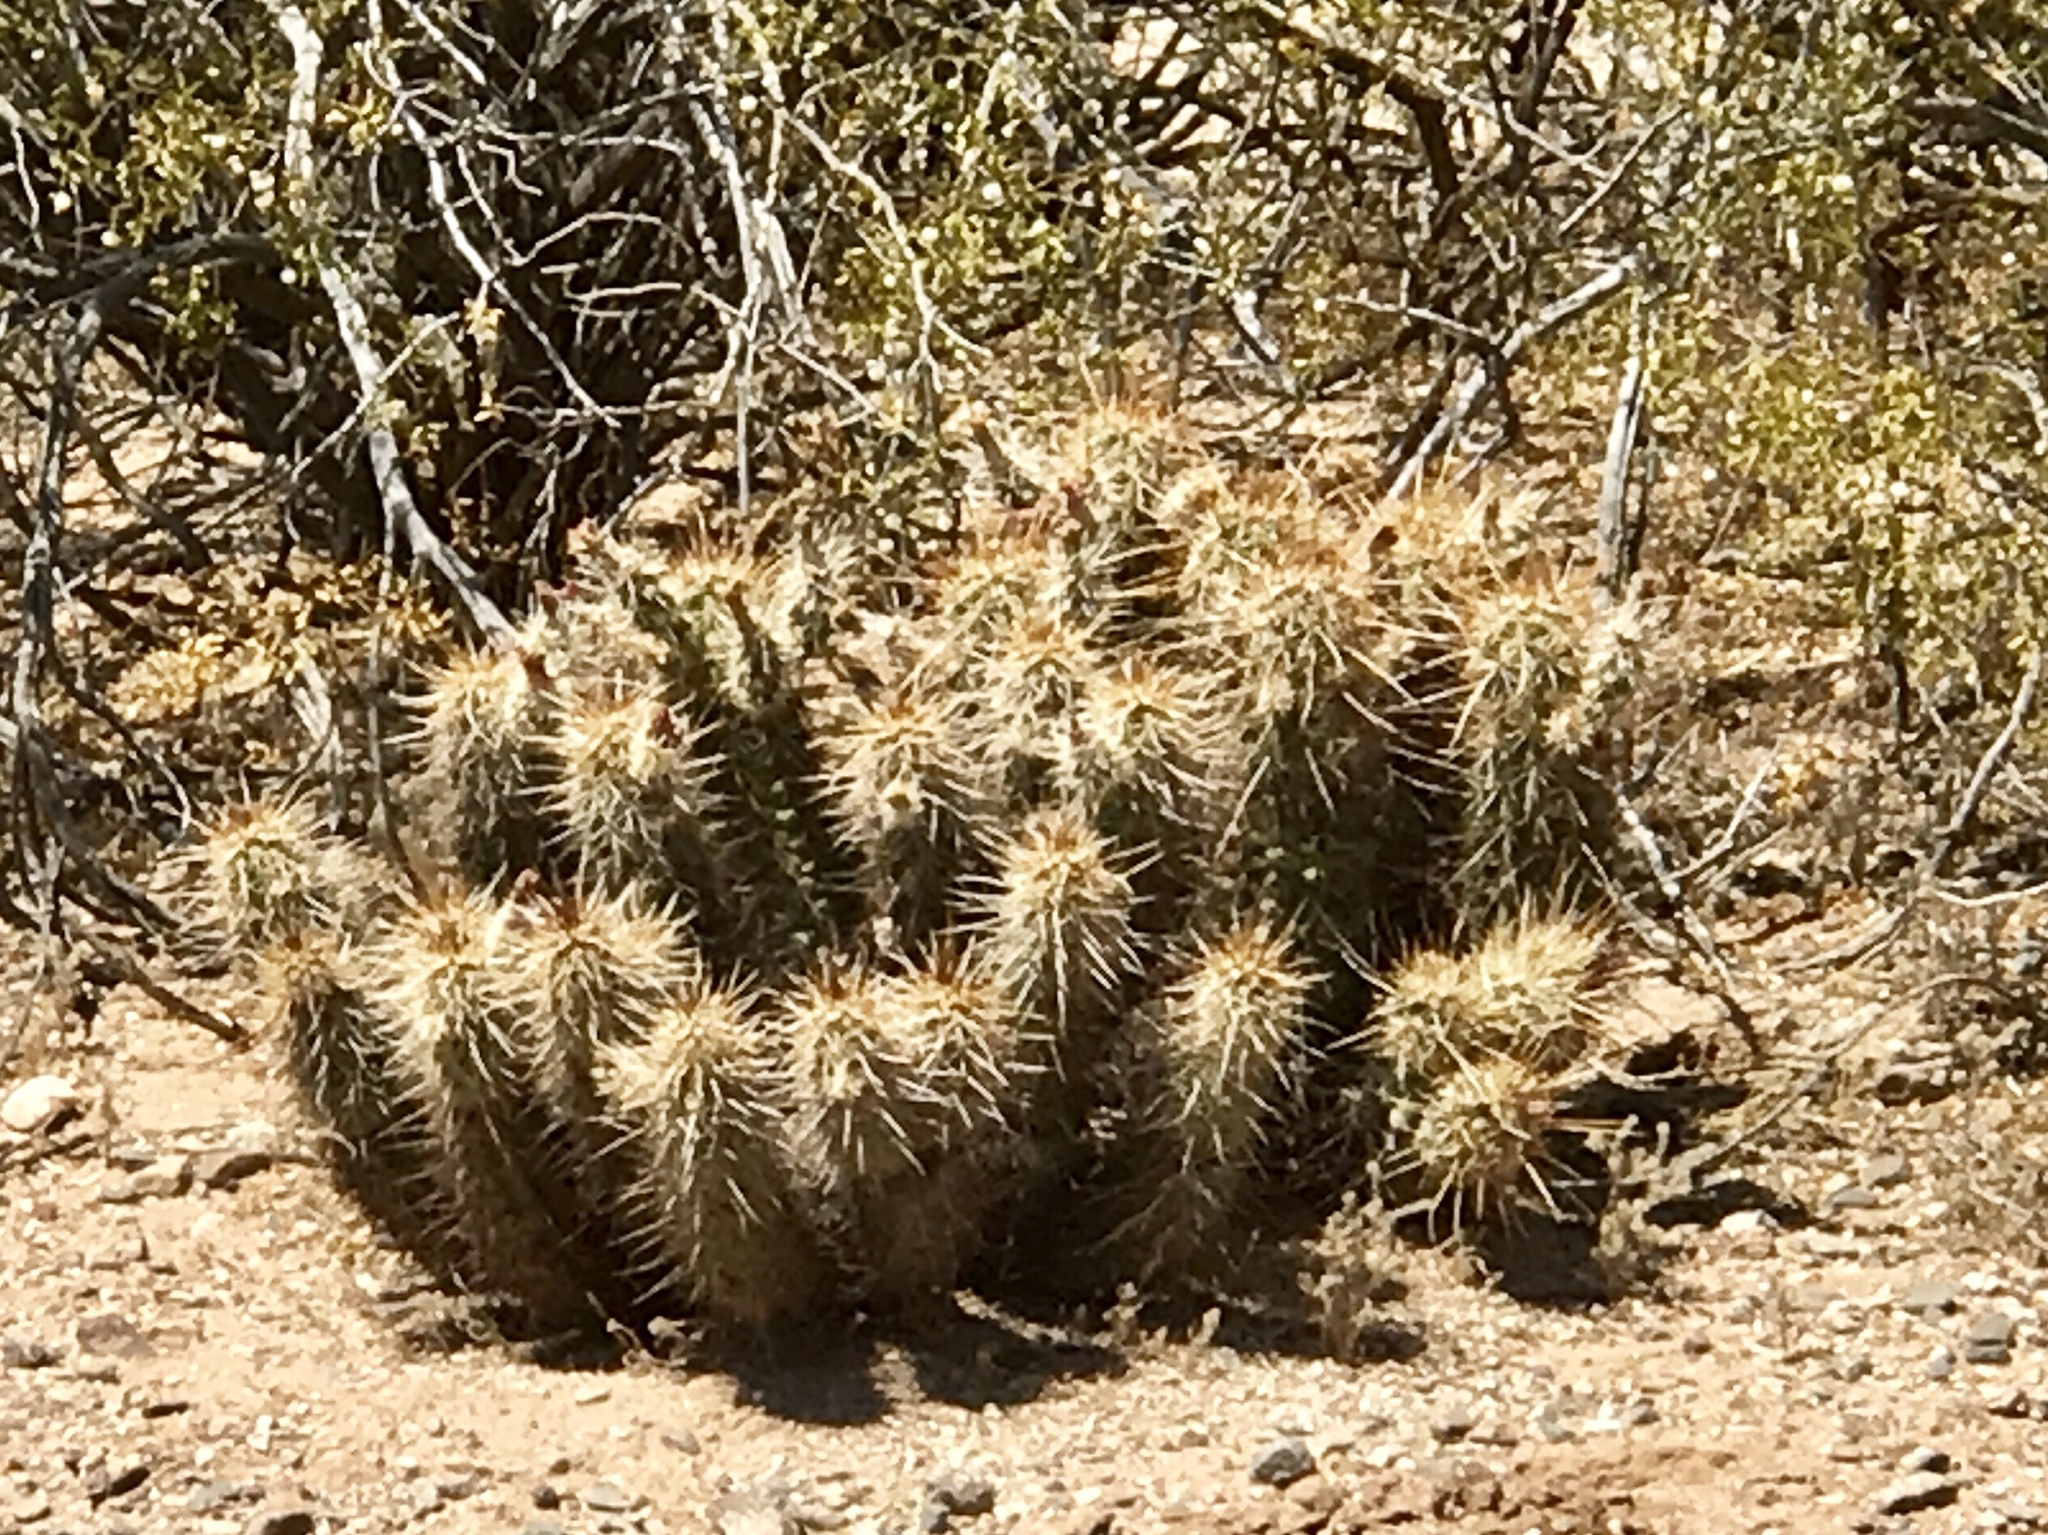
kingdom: Plantae
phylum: Tracheophyta
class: Magnoliopsida
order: Caryophyllales
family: Cactaceae
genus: Echinocereus
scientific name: Echinocereus engelmannii
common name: Engelmann's hedgehog cactus
